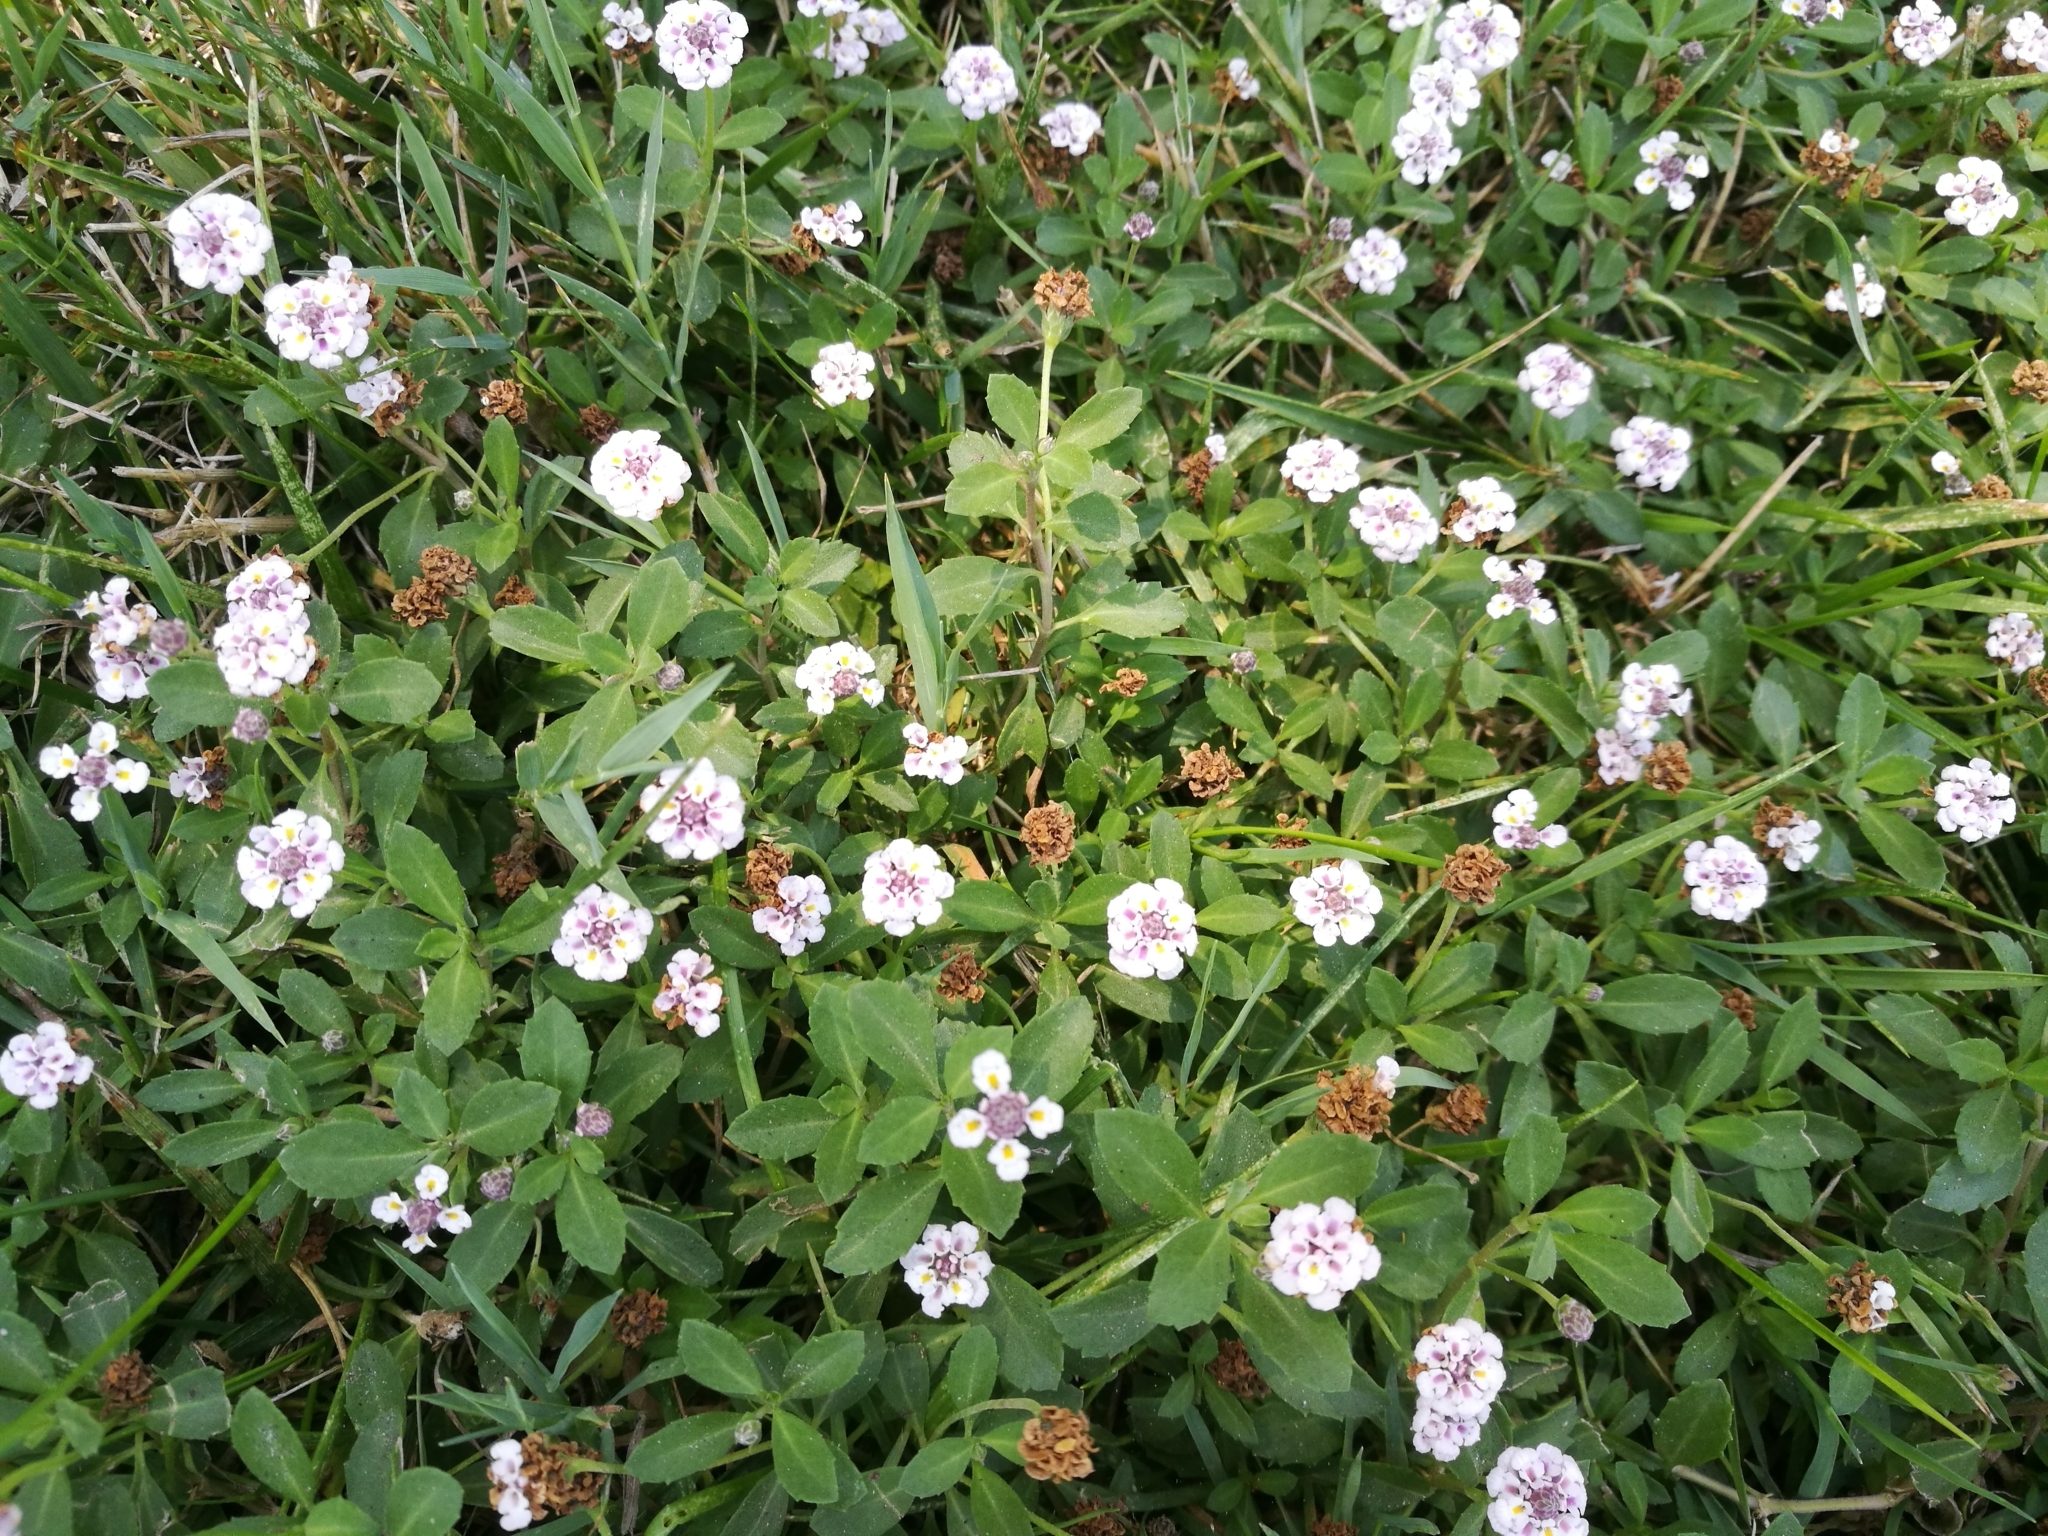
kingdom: Plantae
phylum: Tracheophyta
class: Magnoliopsida
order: Lamiales
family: Verbenaceae
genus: Phyla
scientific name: Phyla nodiflora
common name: Frogfruit
